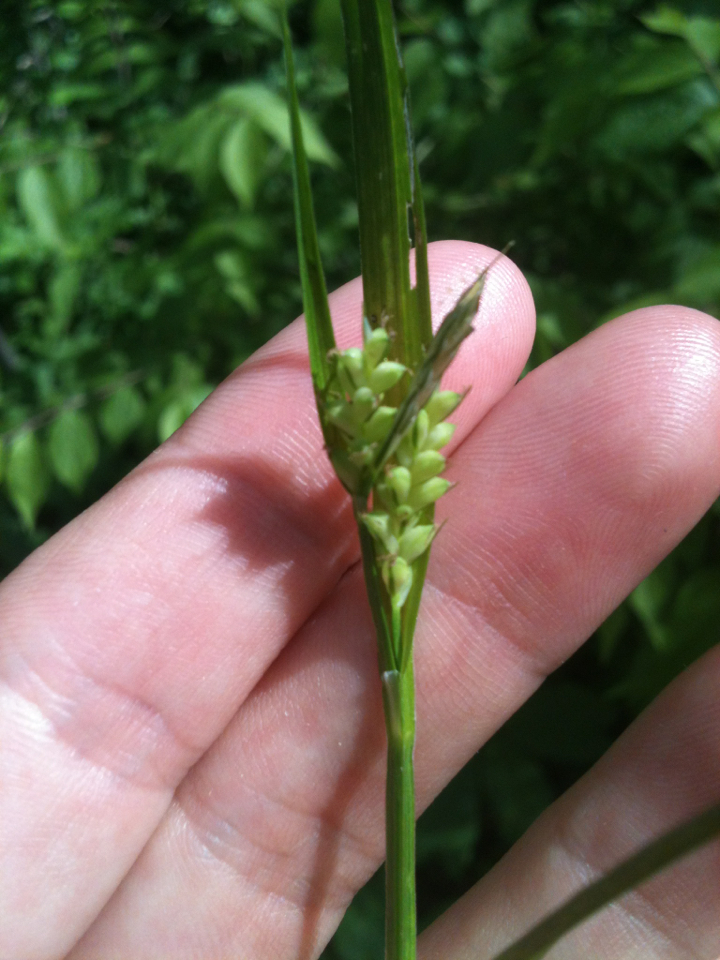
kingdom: Plantae
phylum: Tracheophyta
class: Liliopsida
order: Poales
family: Cyperaceae
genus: Carex
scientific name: Carex blanda
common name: Bland sedge
